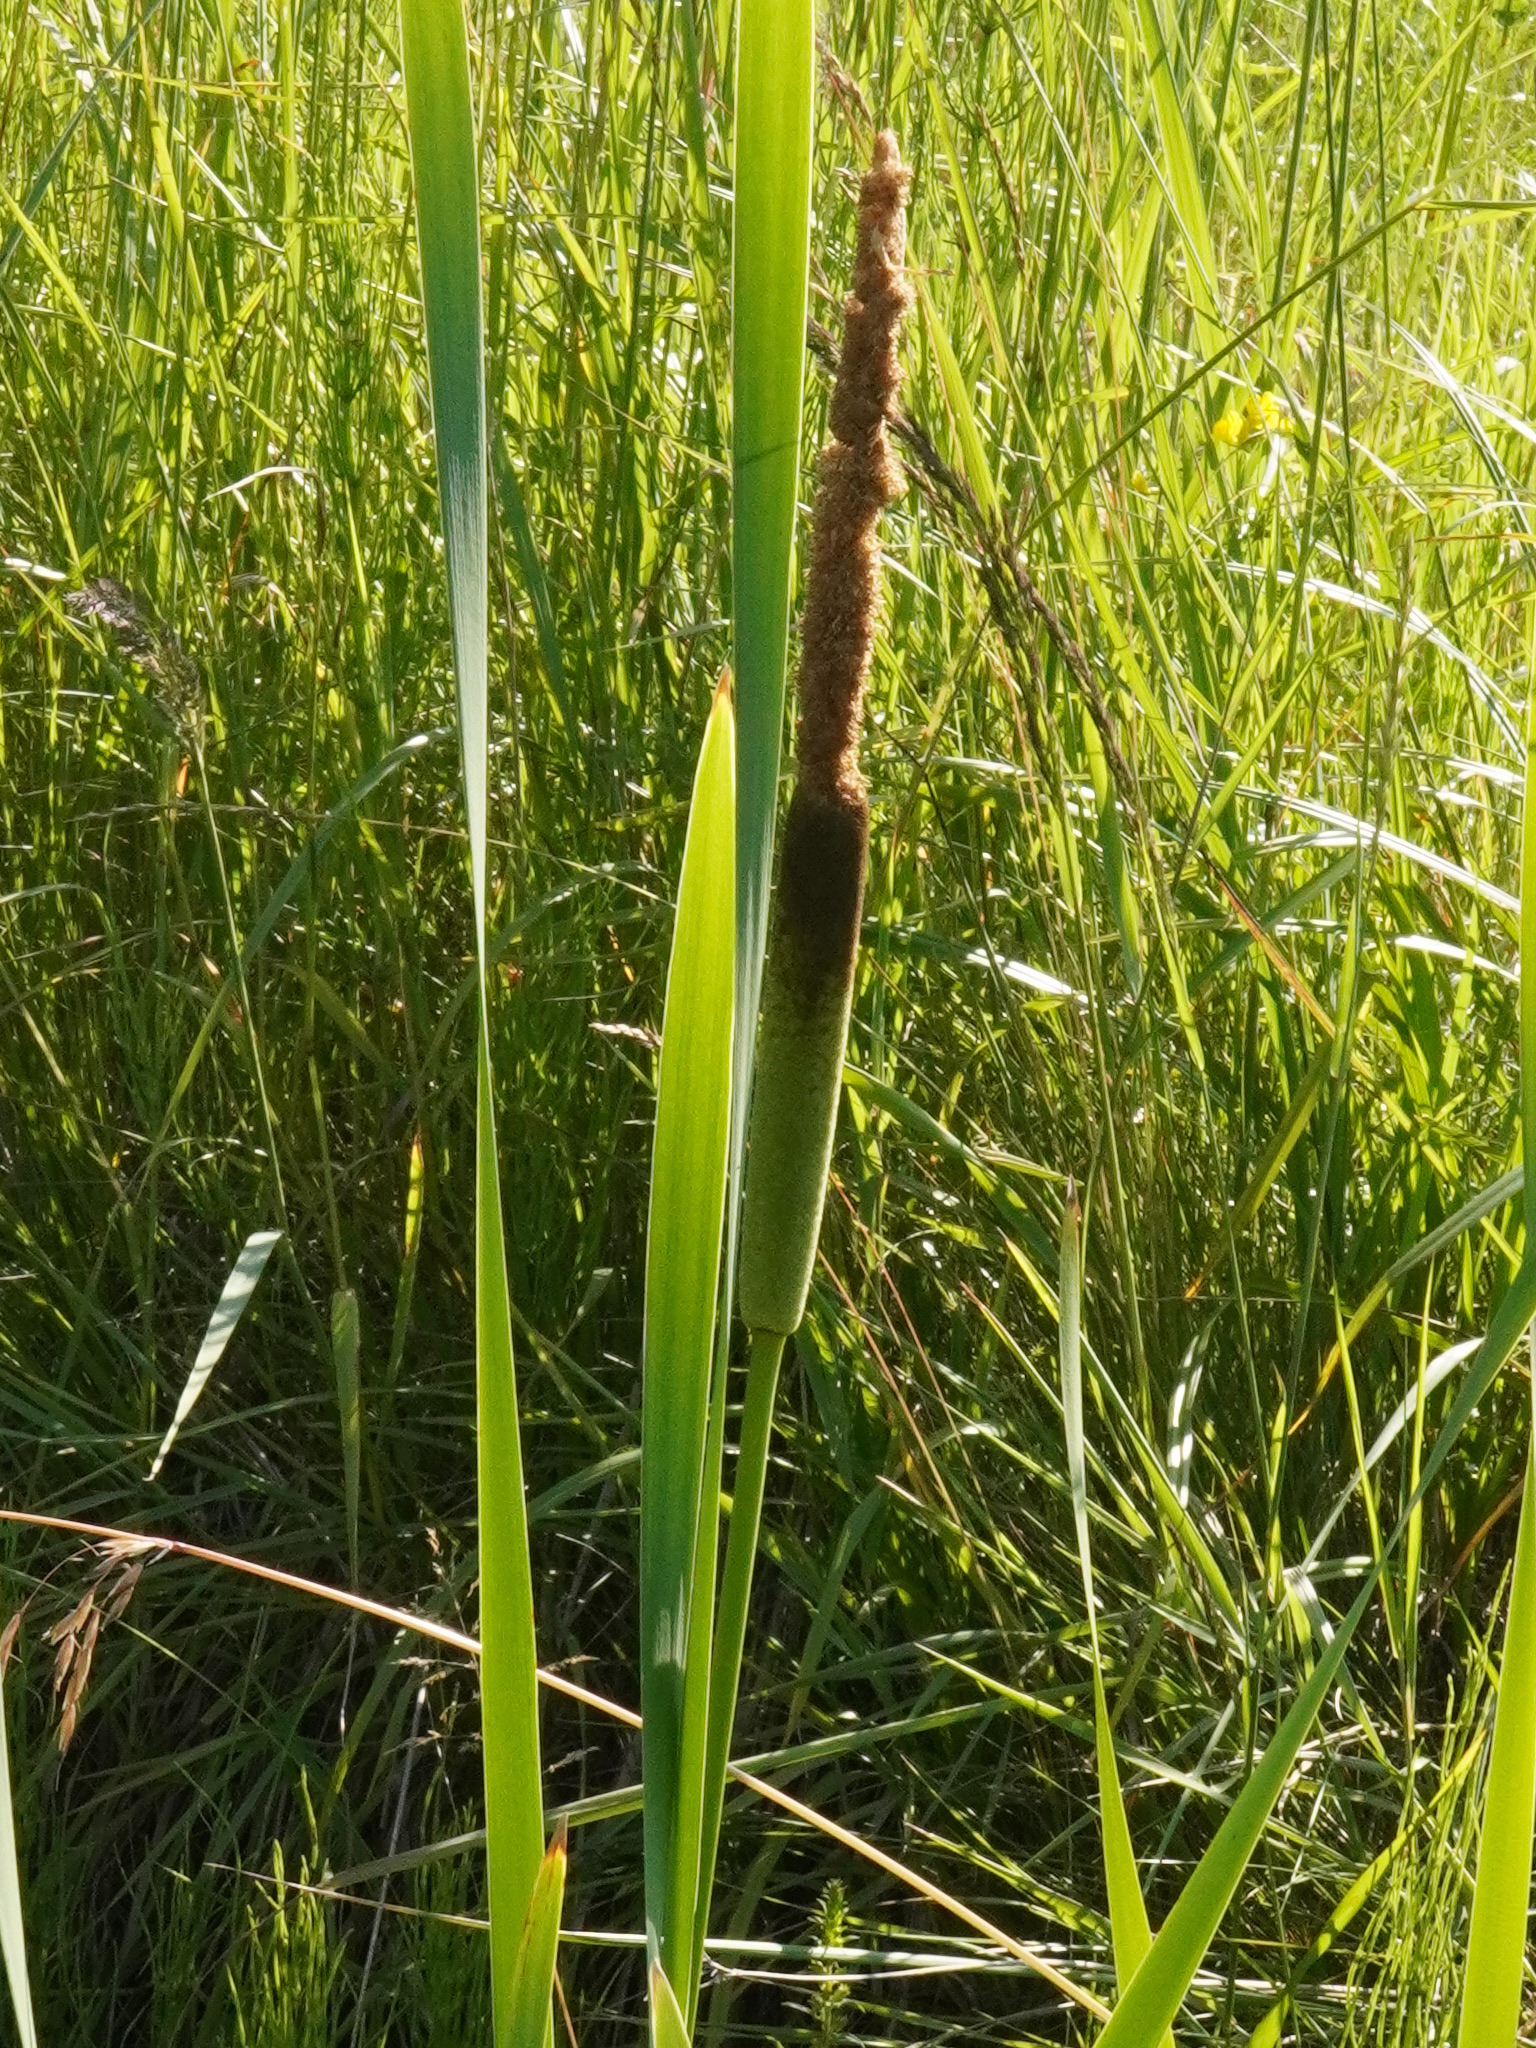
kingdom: Plantae
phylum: Tracheophyta
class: Liliopsida
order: Poales
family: Typhaceae
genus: Typha
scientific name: Typha latifolia
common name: Broadleaf cattail
